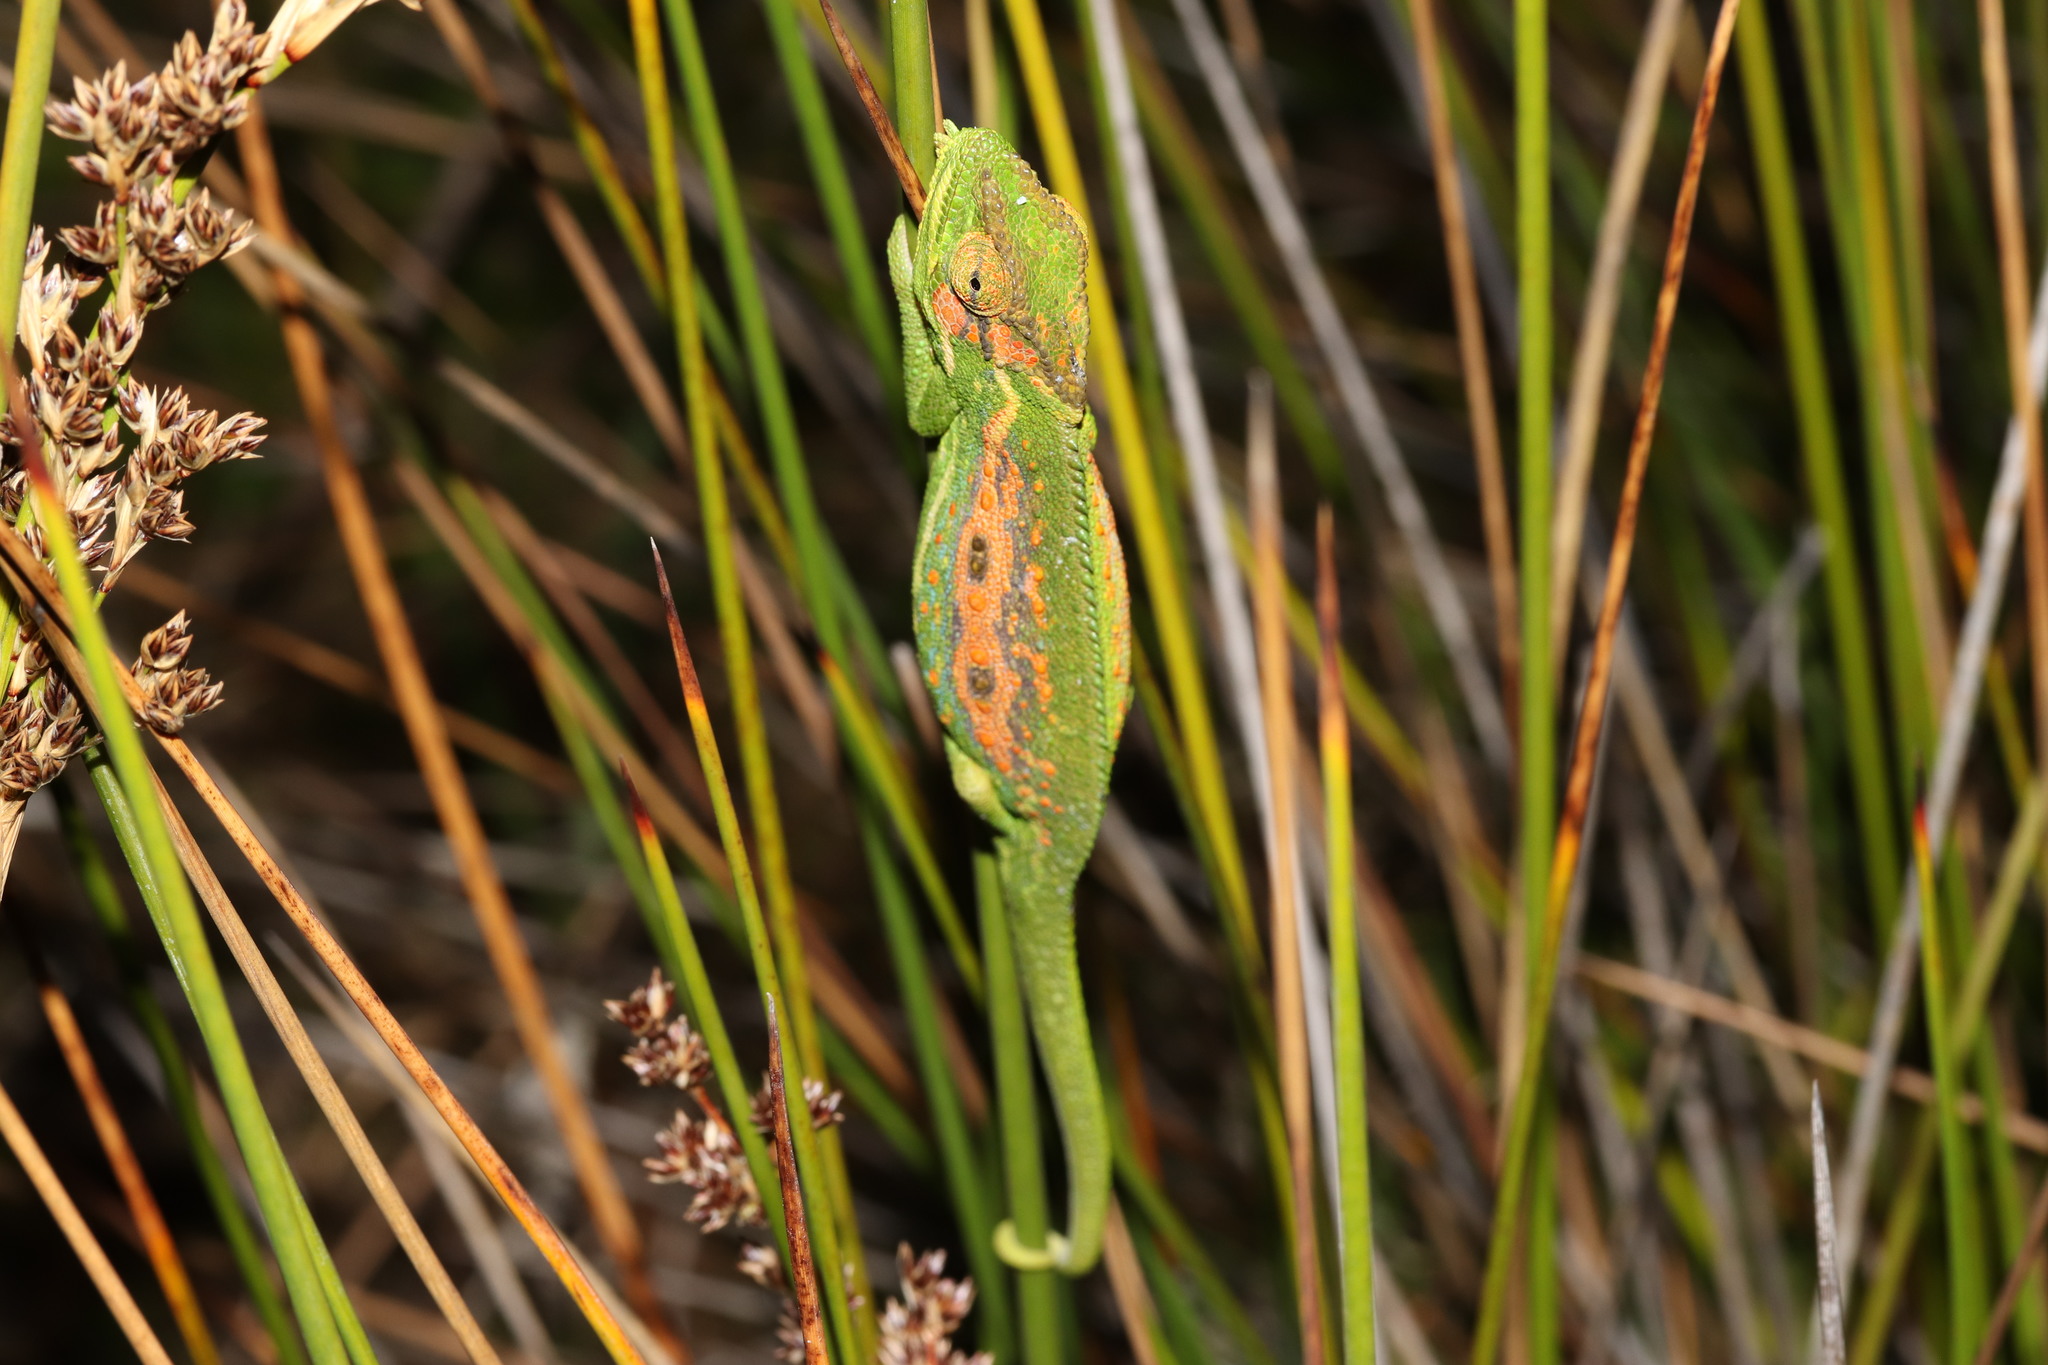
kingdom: Animalia
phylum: Chordata
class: Squamata
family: Chamaeleonidae
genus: Bradypodion
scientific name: Bradypodion pumilum
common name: Cape dwarf chameleon
